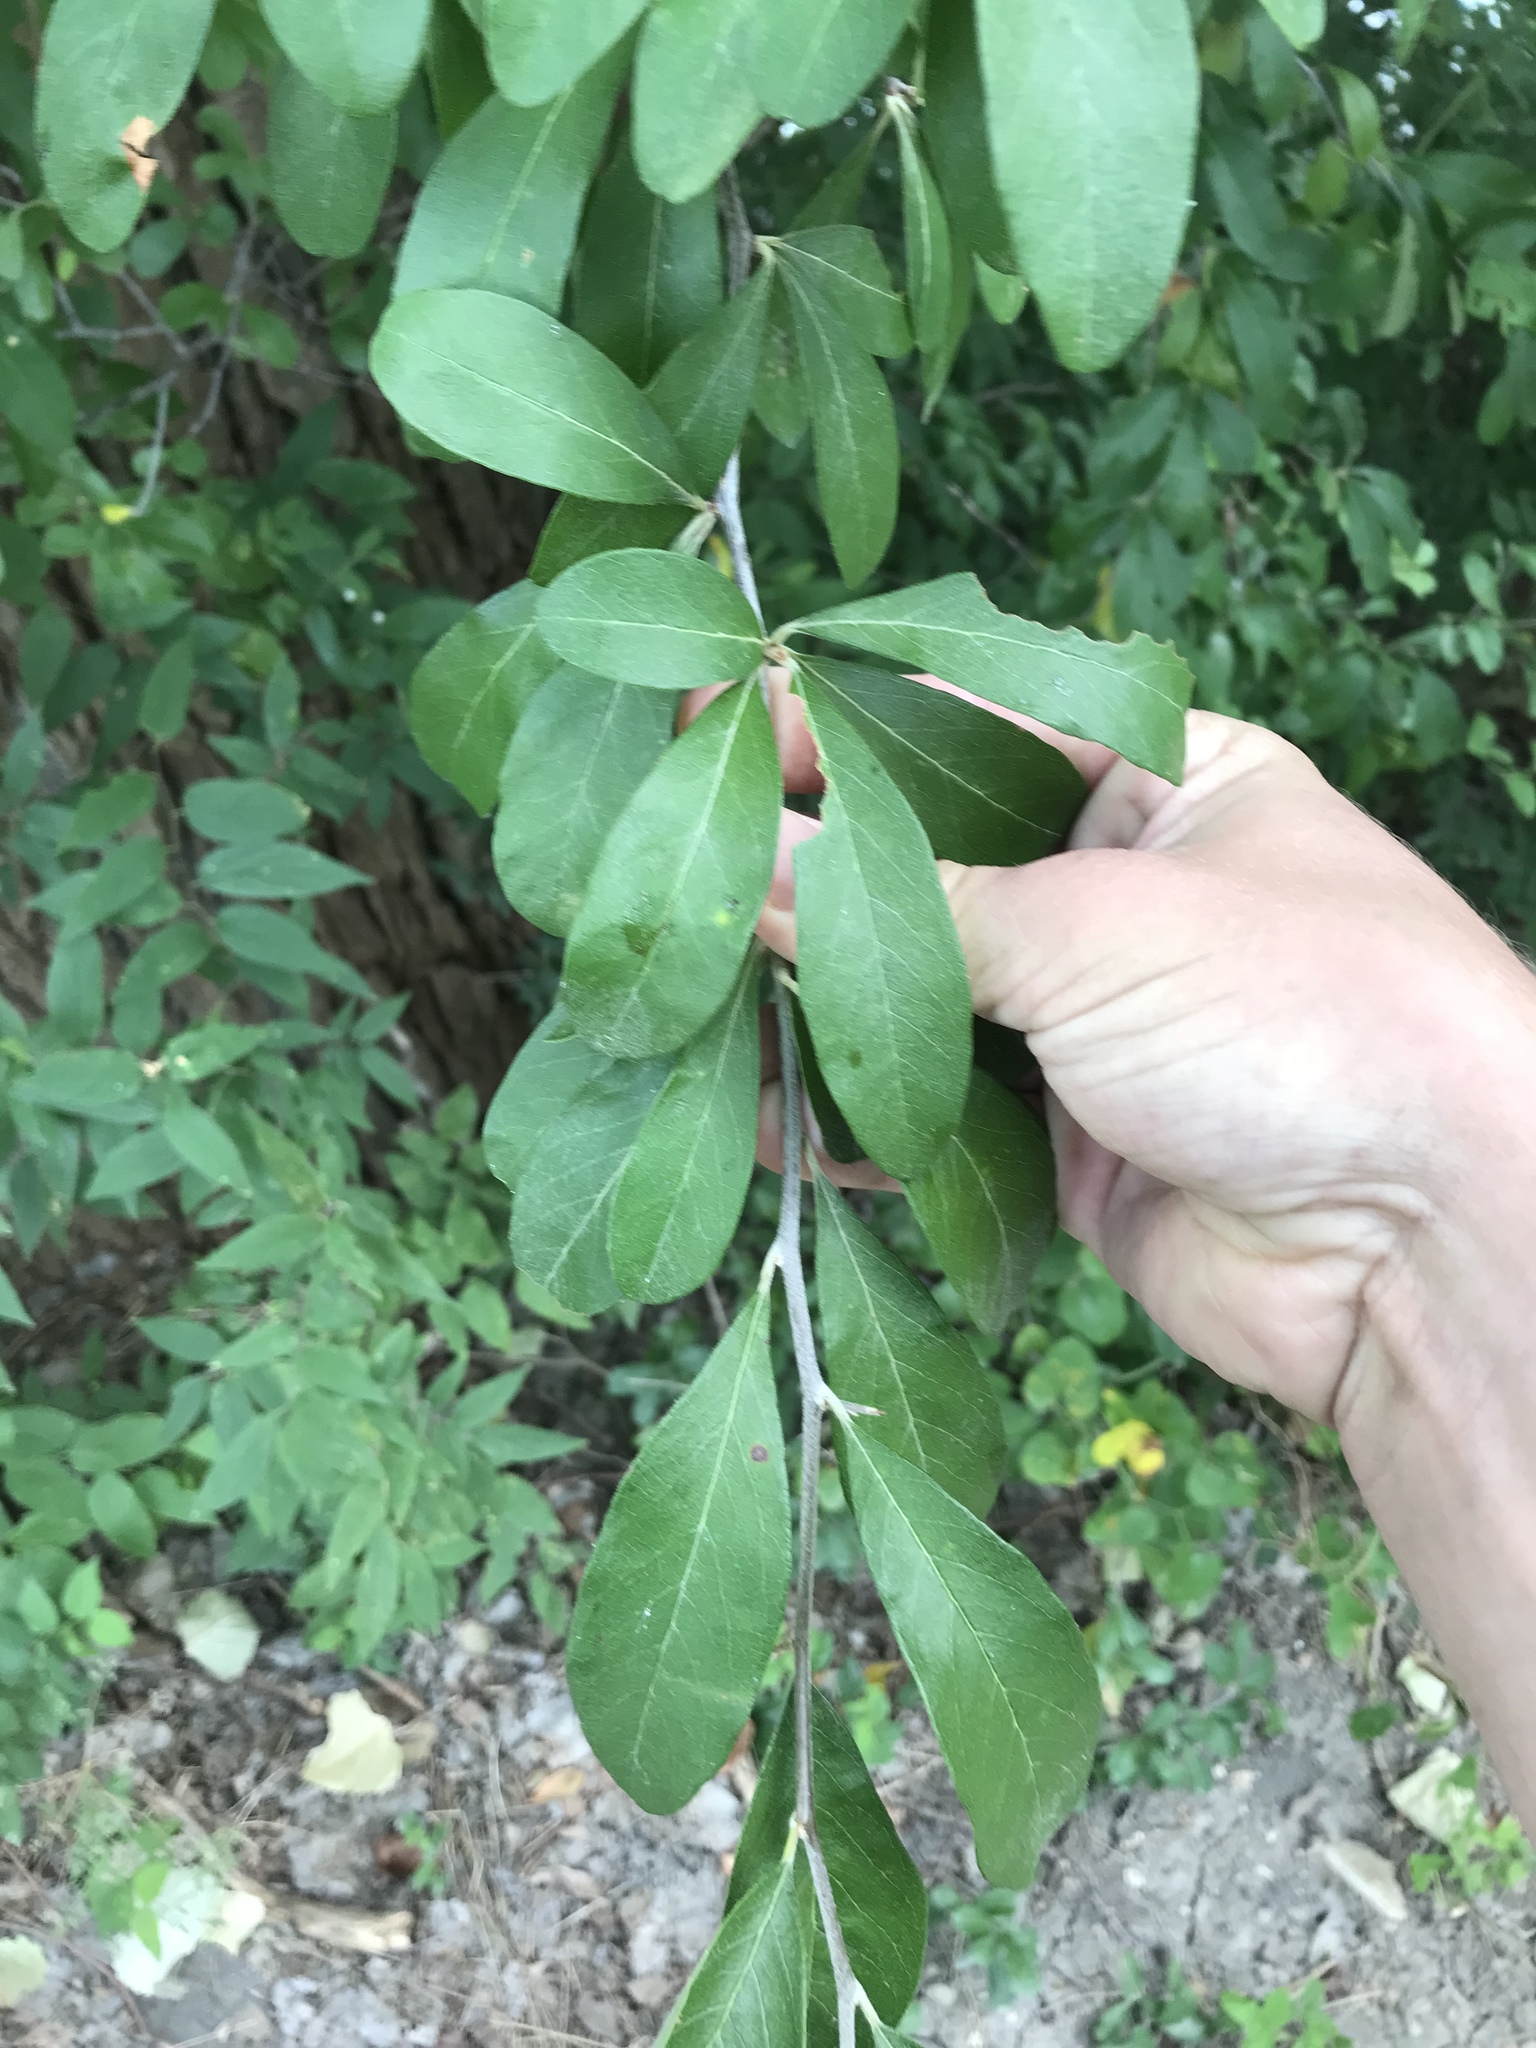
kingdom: Plantae
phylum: Tracheophyta
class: Magnoliopsida
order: Ericales
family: Sapotaceae
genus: Sideroxylon
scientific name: Sideroxylon lanuginosum
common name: Chittamwood
